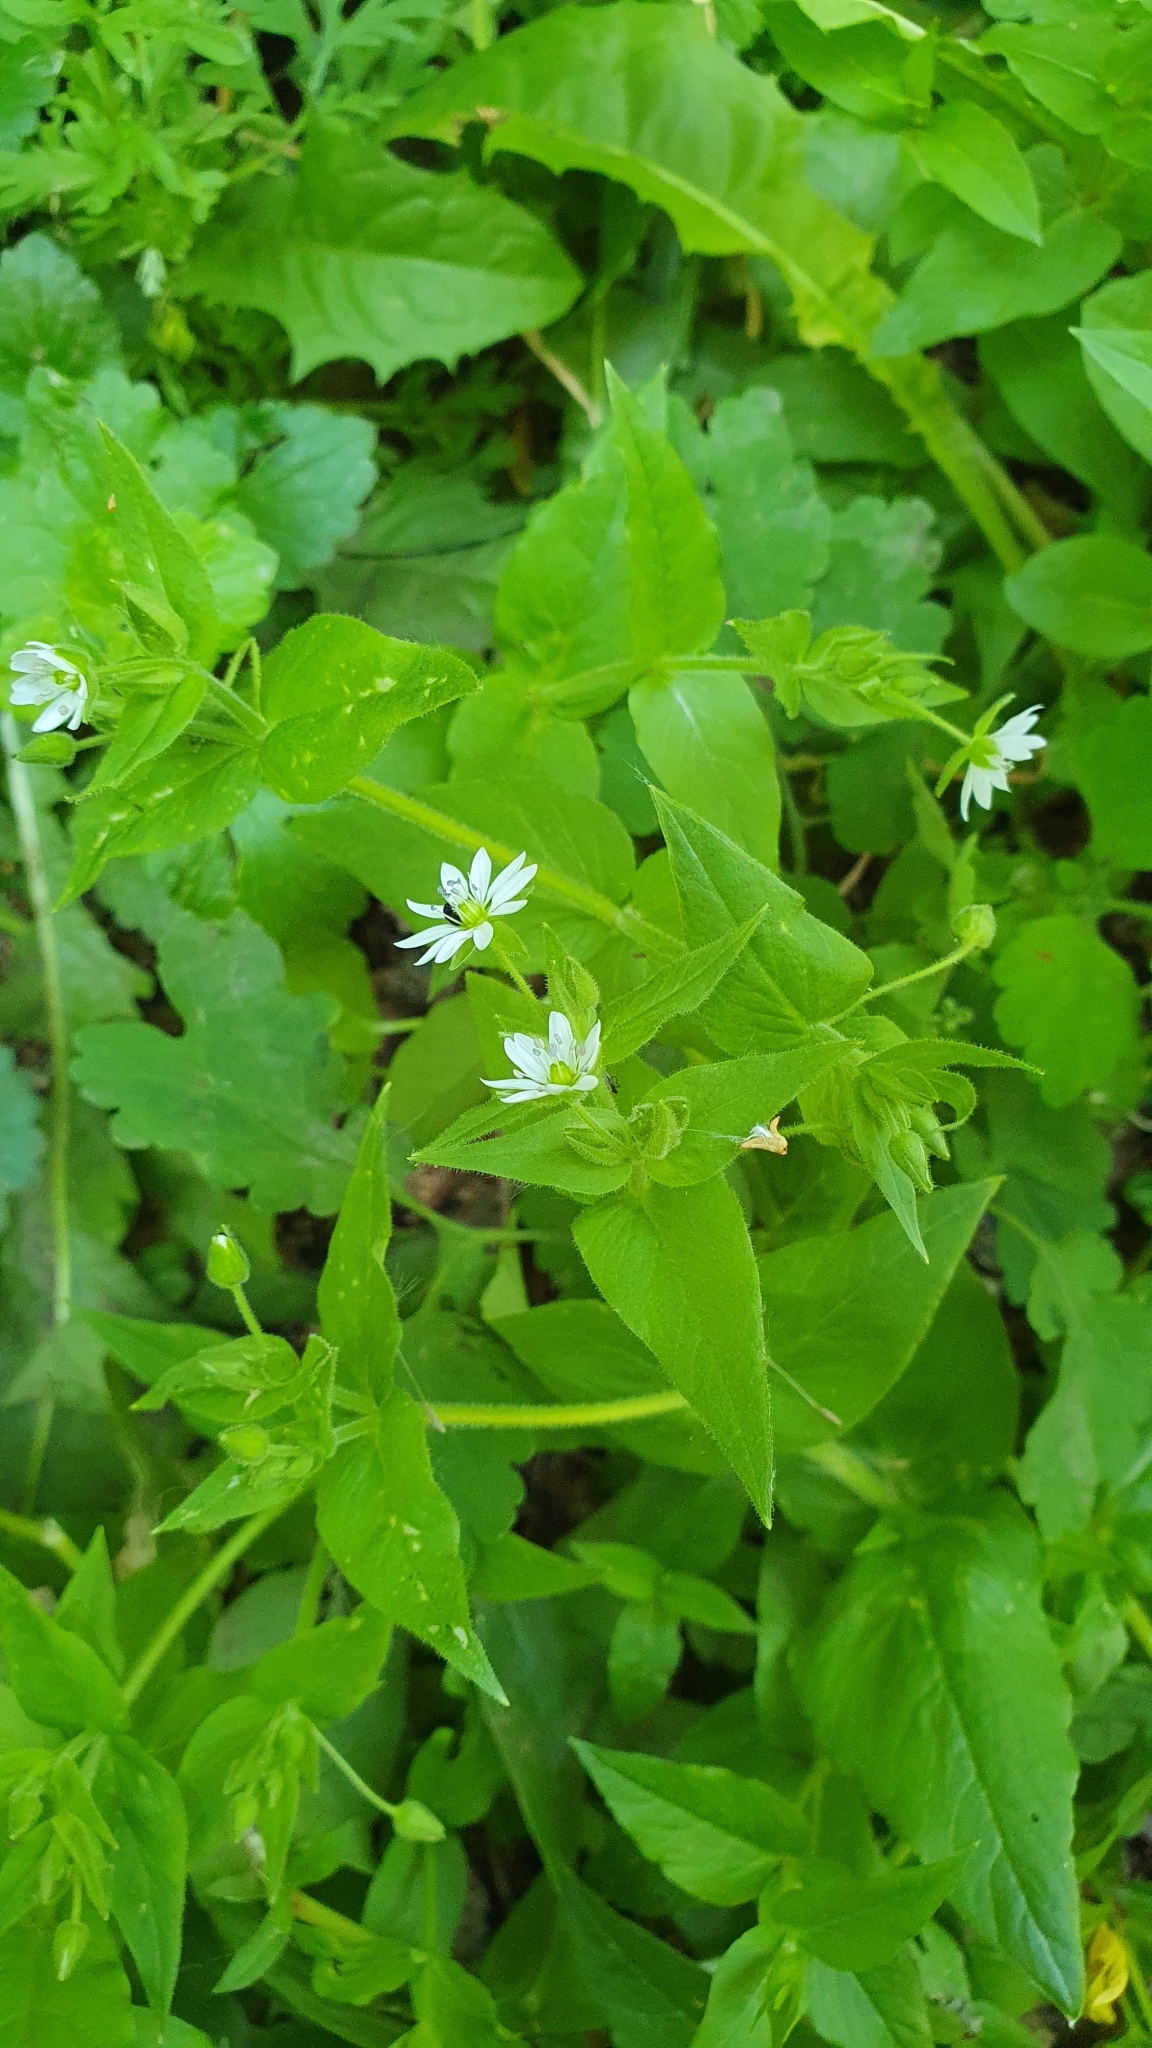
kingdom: Plantae
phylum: Tracheophyta
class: Magnoliopsida
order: Caryophyllales
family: Caryophyllaceae
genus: Stellaria
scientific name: Stellaria aquatica
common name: Water chickweed
